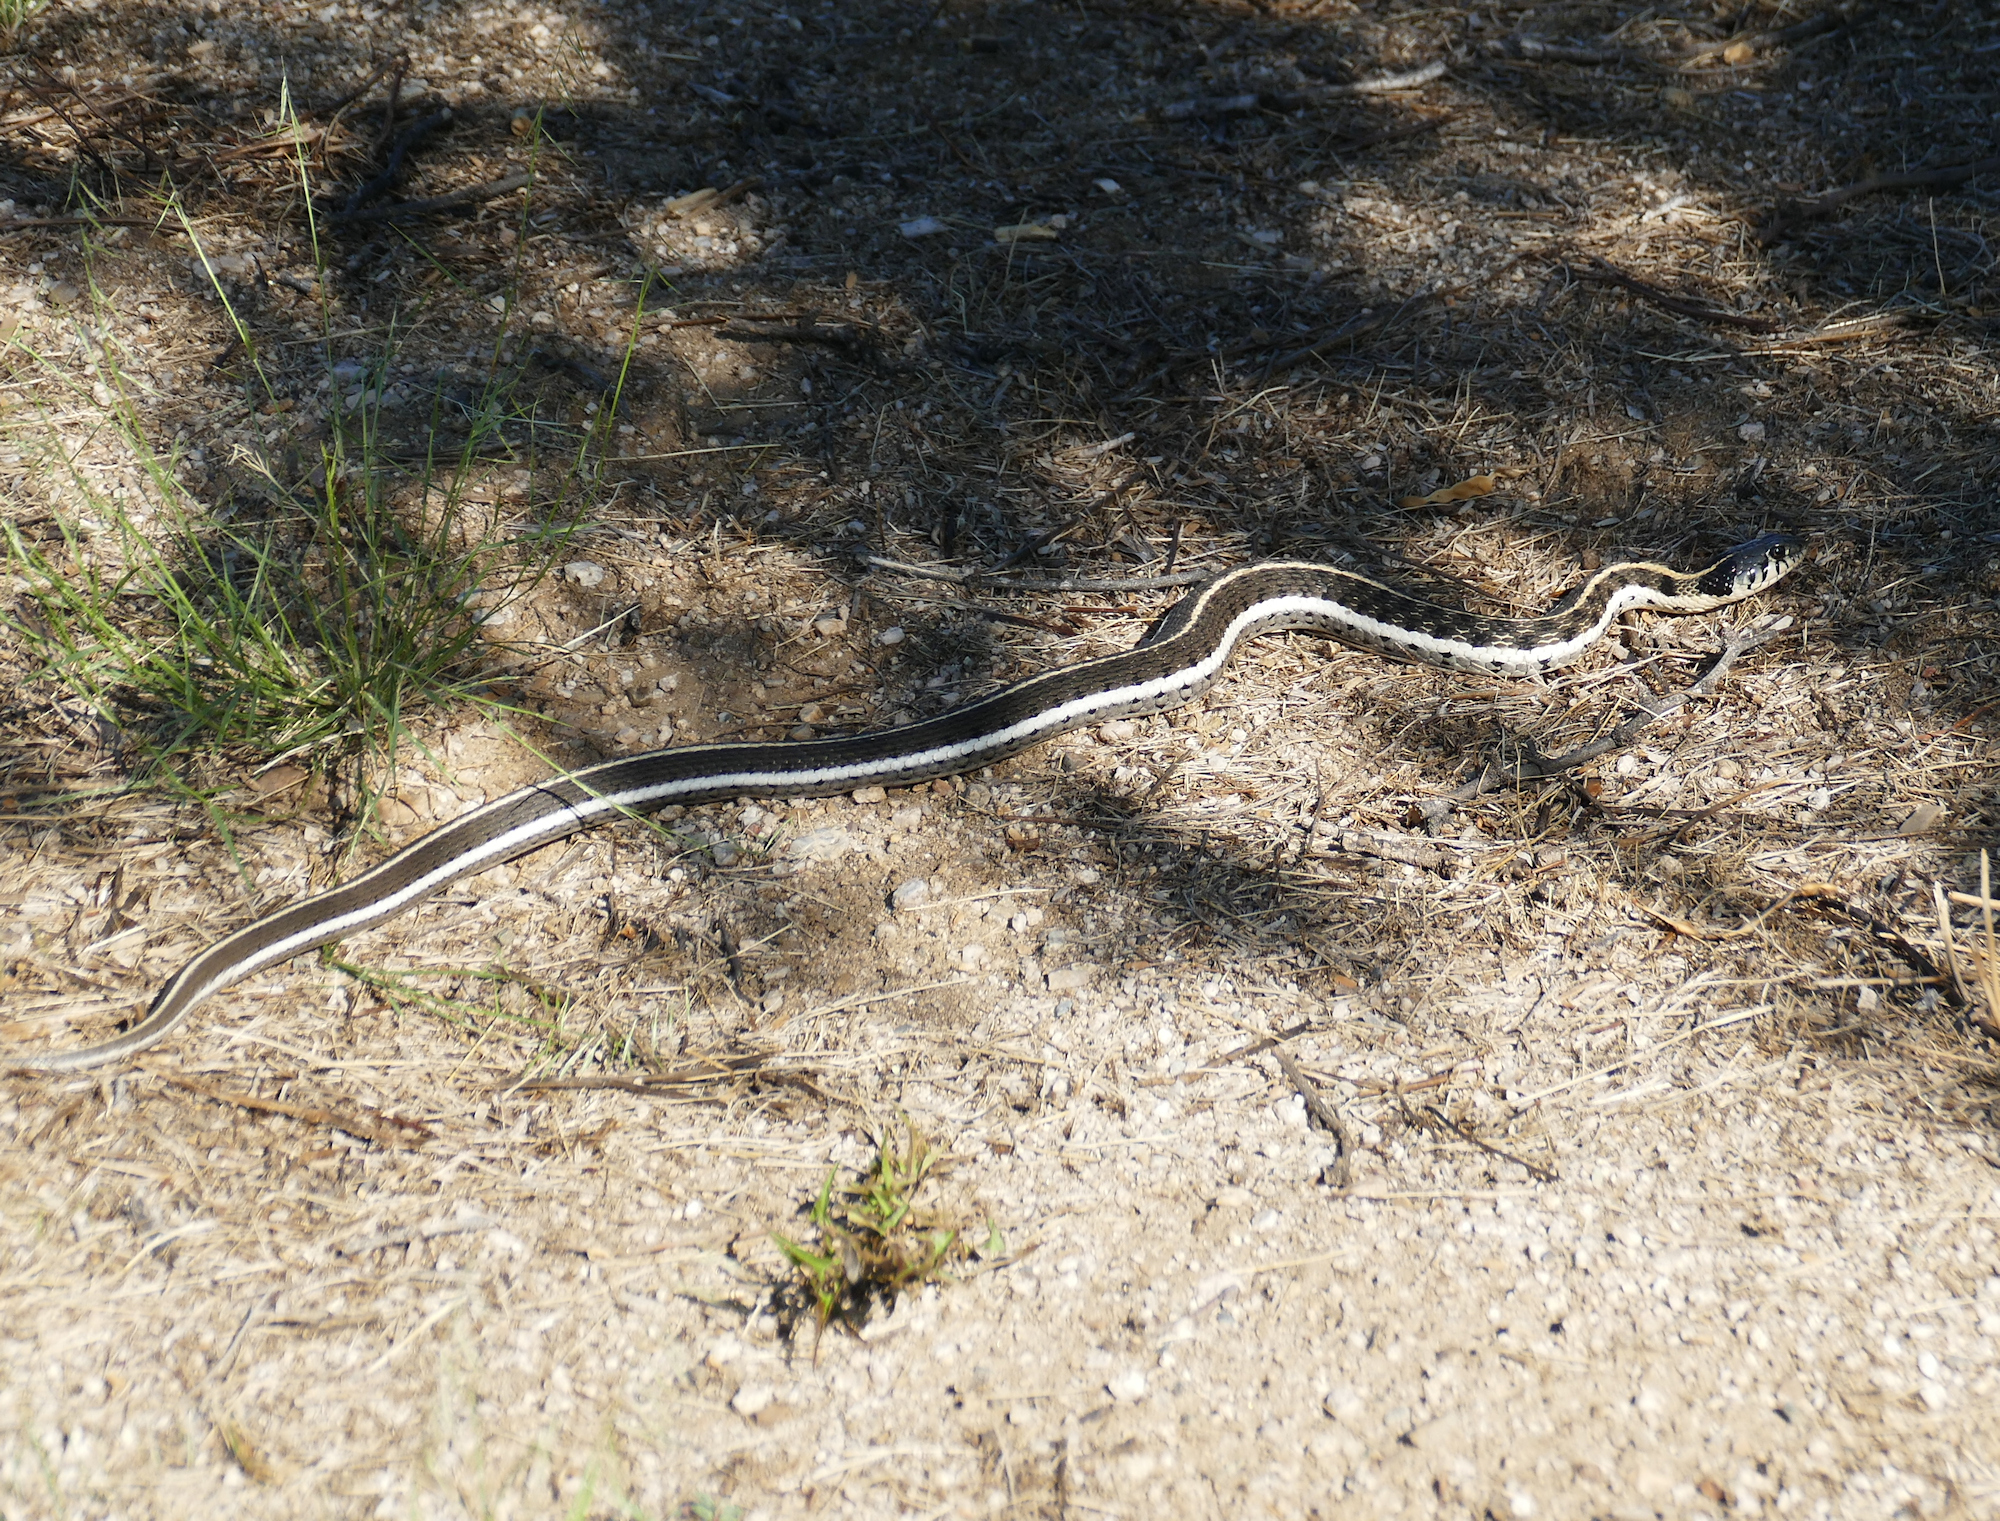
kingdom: Animalia
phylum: Chordata
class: Squamata
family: Colubridae
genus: Thamnophis
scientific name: Thamnophis cyrtopsis
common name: Black-necked gartersnake
